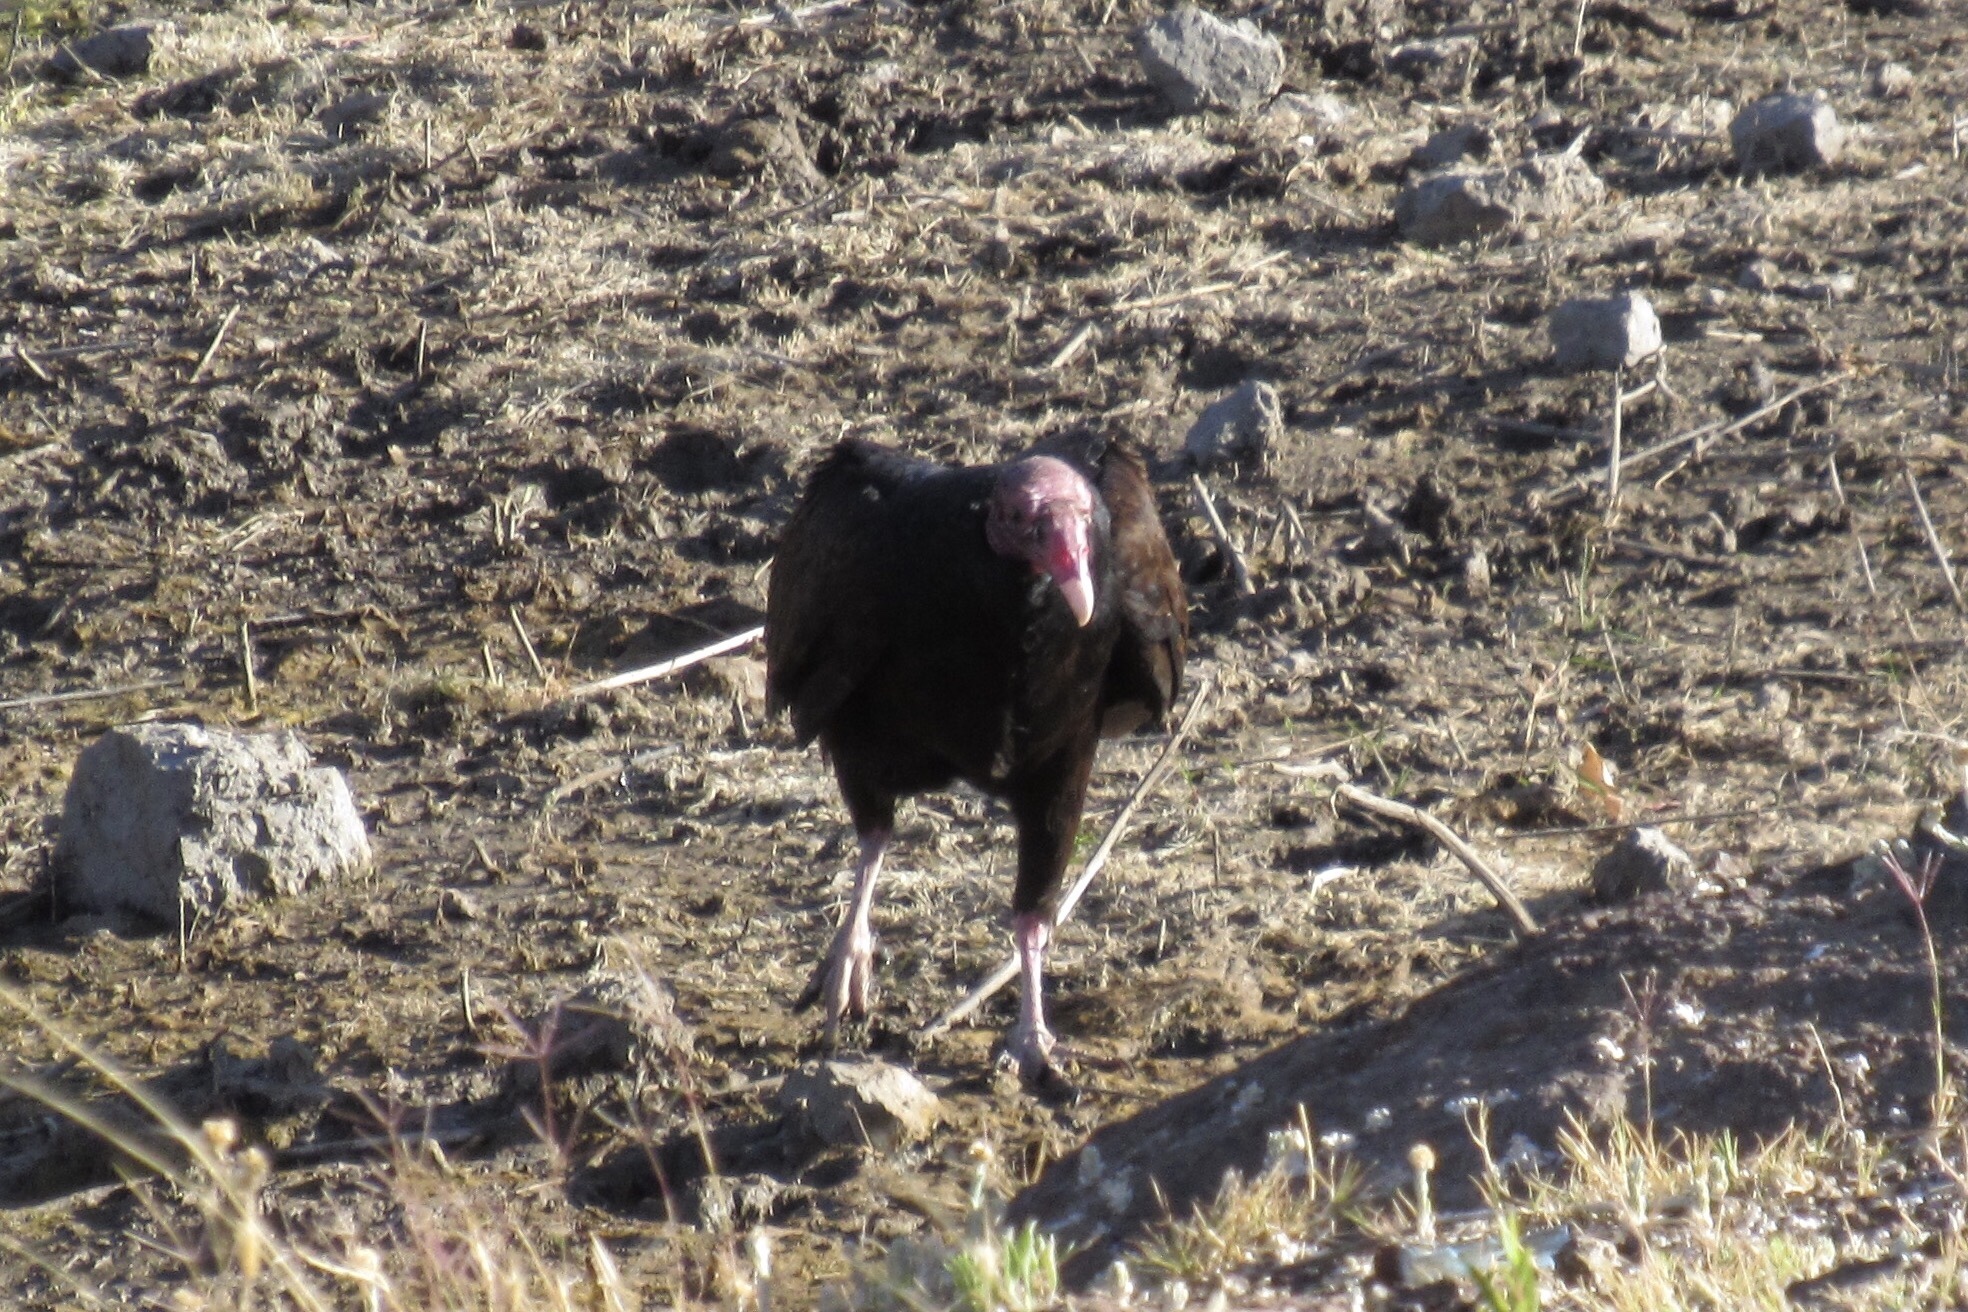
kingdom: Animalia
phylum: Chordata
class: Aves
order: Accipitriformes
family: Cathartidae
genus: Cathartes
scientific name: Cathartes aura
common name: Turkey vulture
